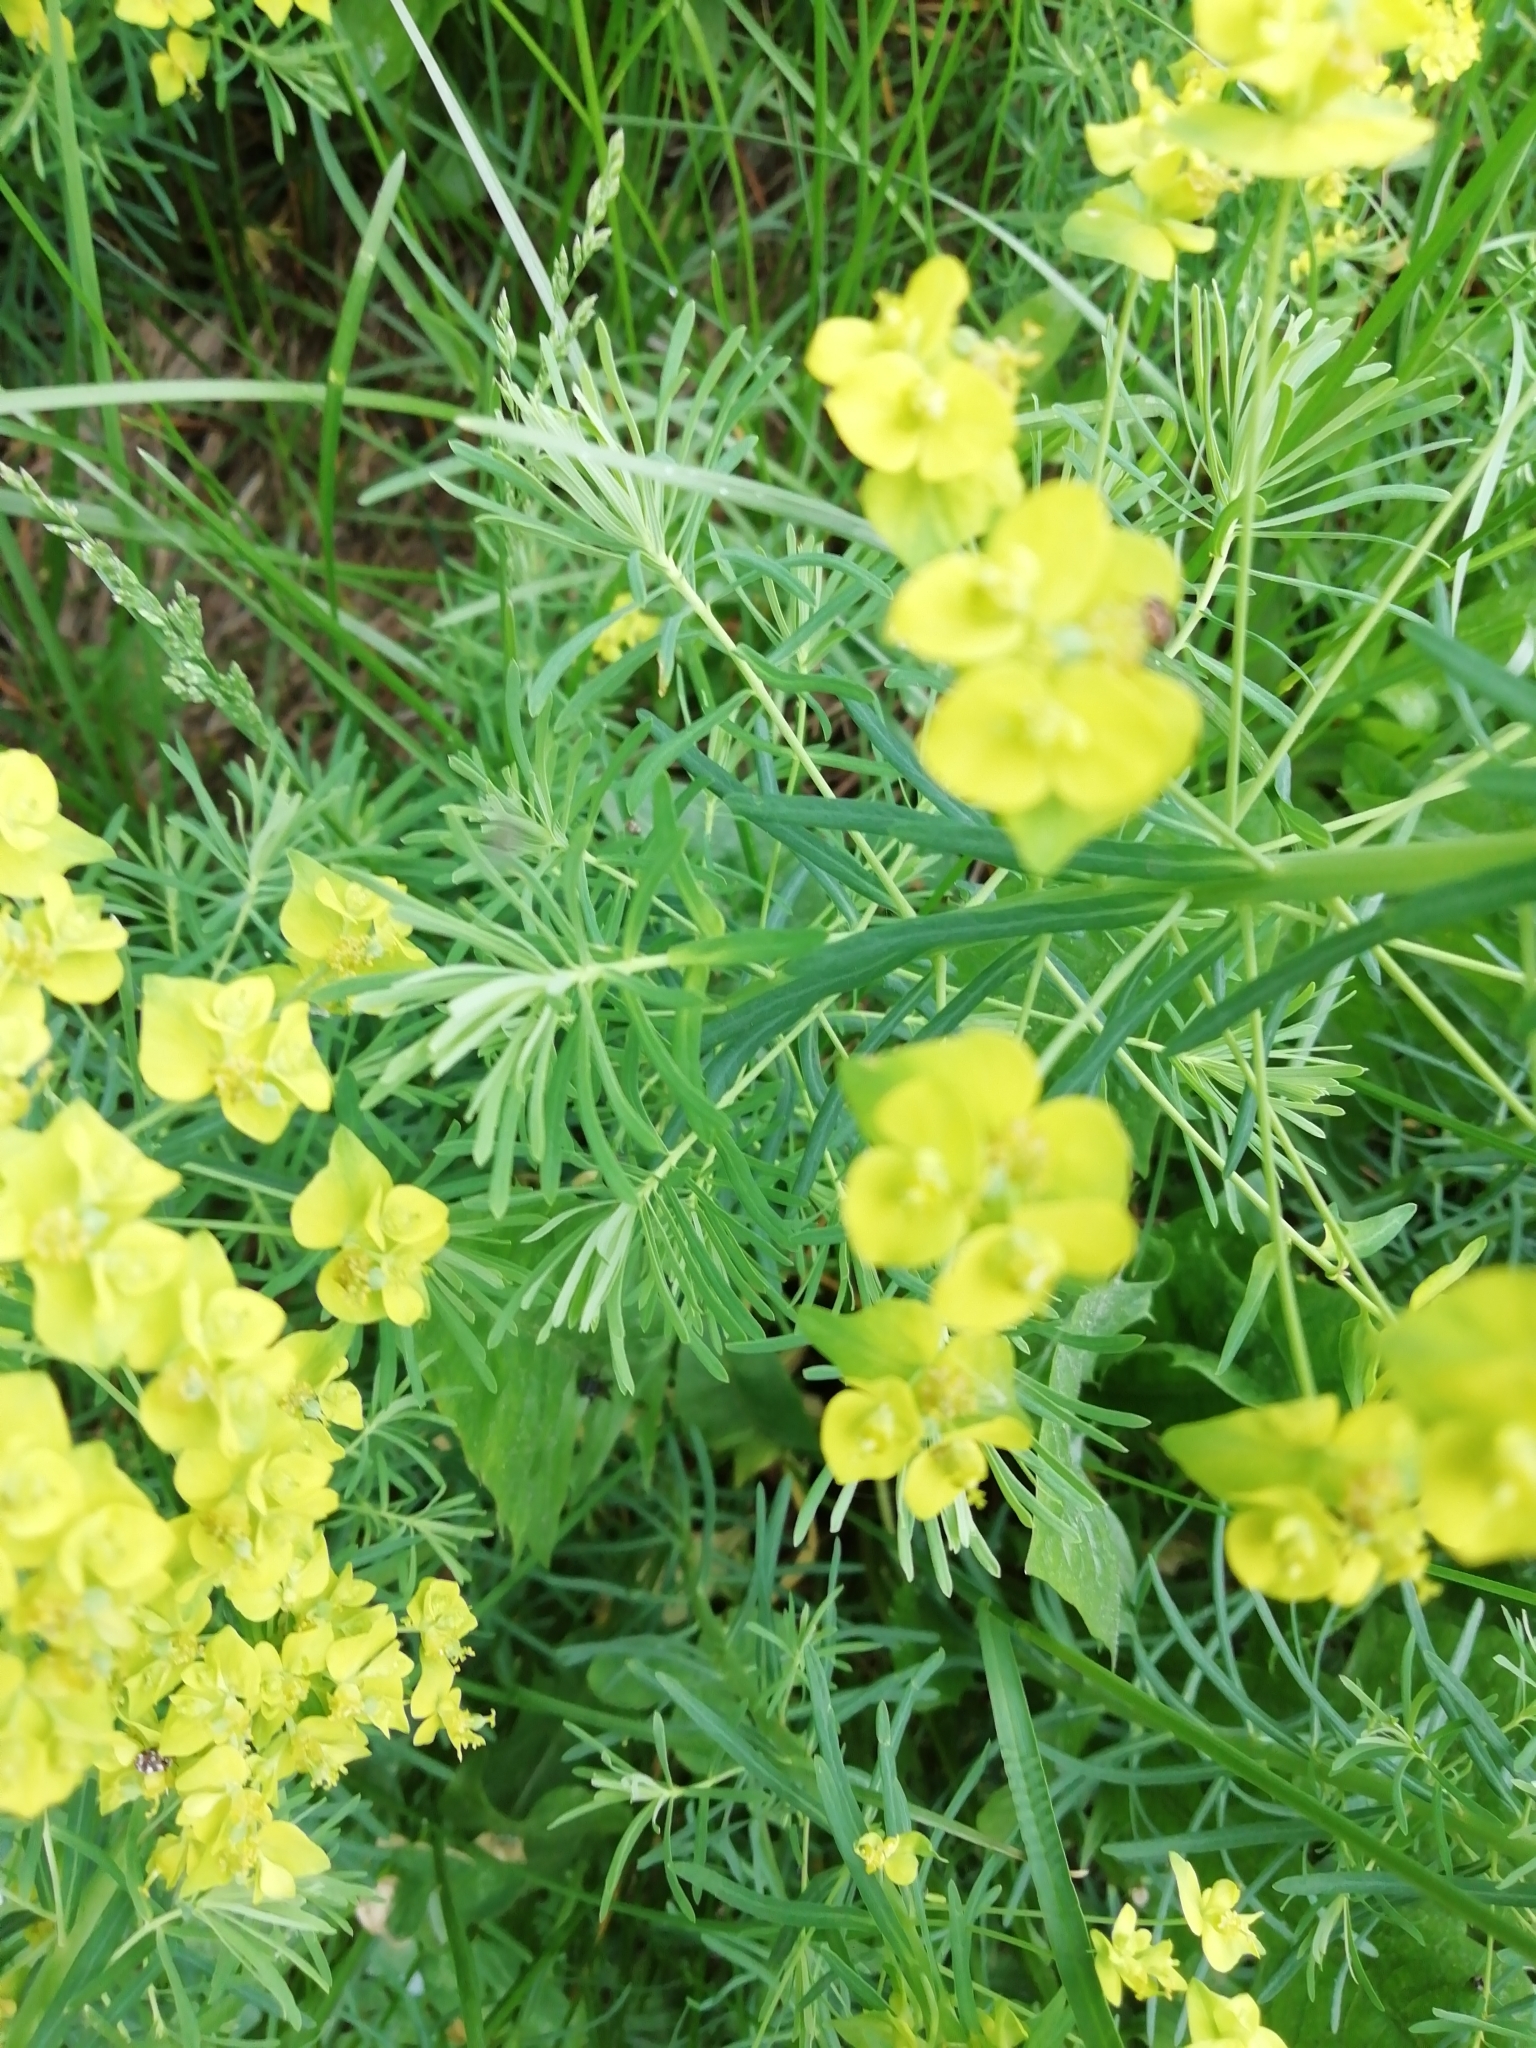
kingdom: Plantae
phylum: Tracheophyta
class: Magnoliopsida
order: Malpighiales
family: Euphorbiaceae
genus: Euphorbia
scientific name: Euphorbia cyparissias
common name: Cypress spurge
